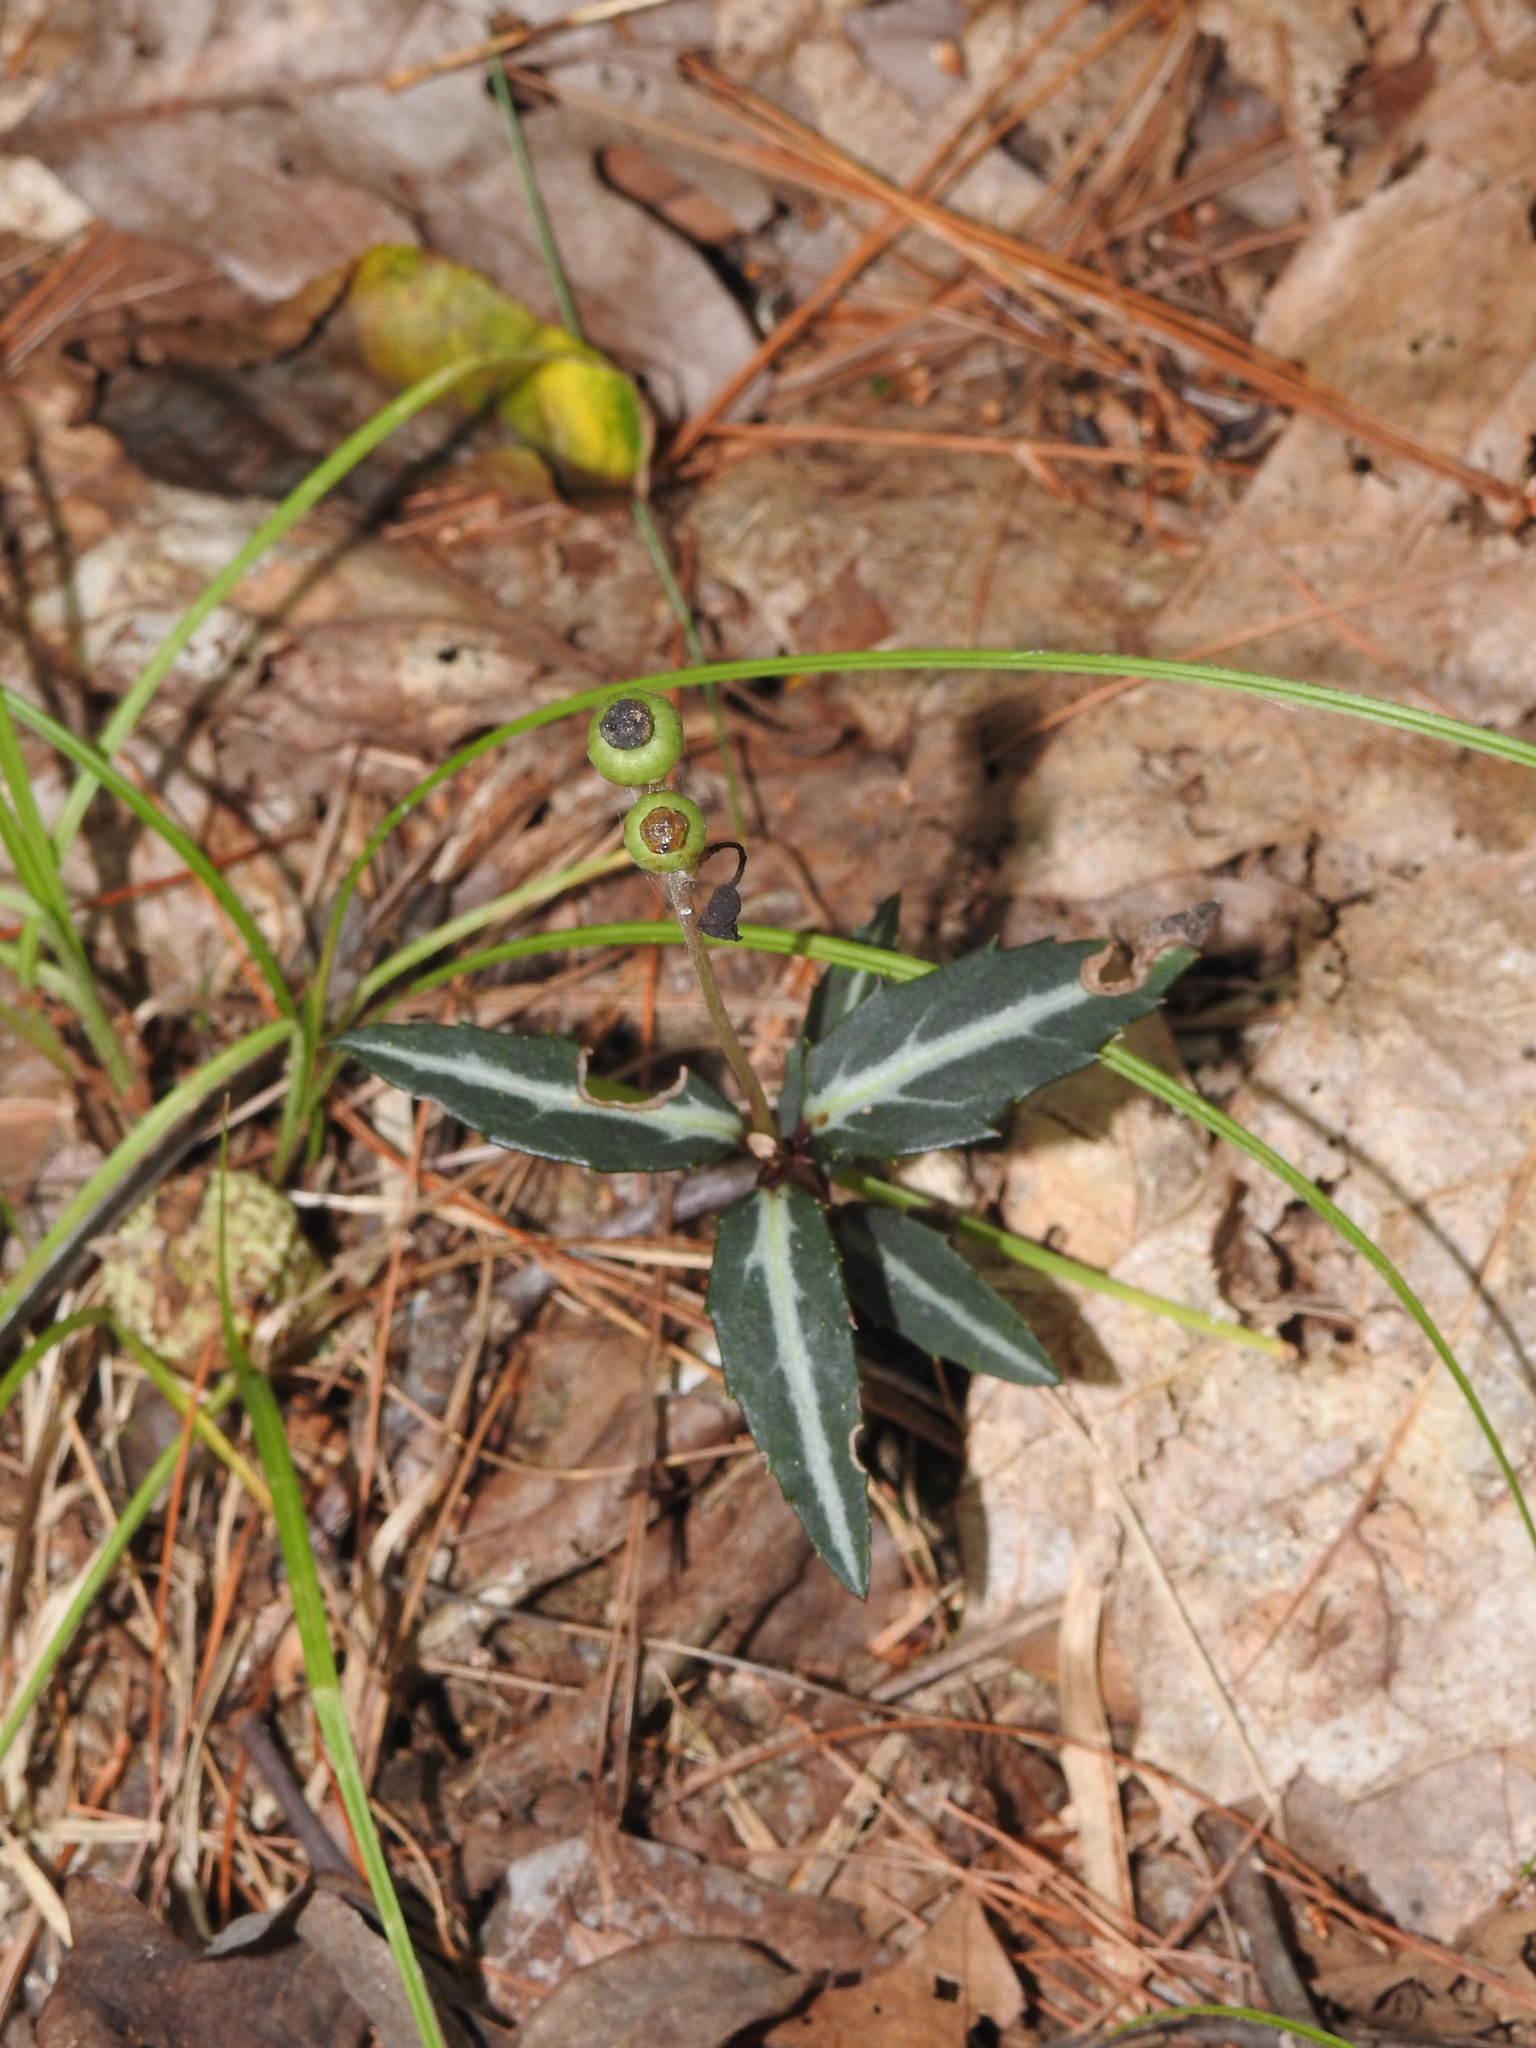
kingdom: Plantae
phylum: Tracheophyta
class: Magnoliopsida
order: Ericales
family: Ericaceae
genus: Chimaphila
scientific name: Chimaphila maculata
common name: Spotted pipsissewa
